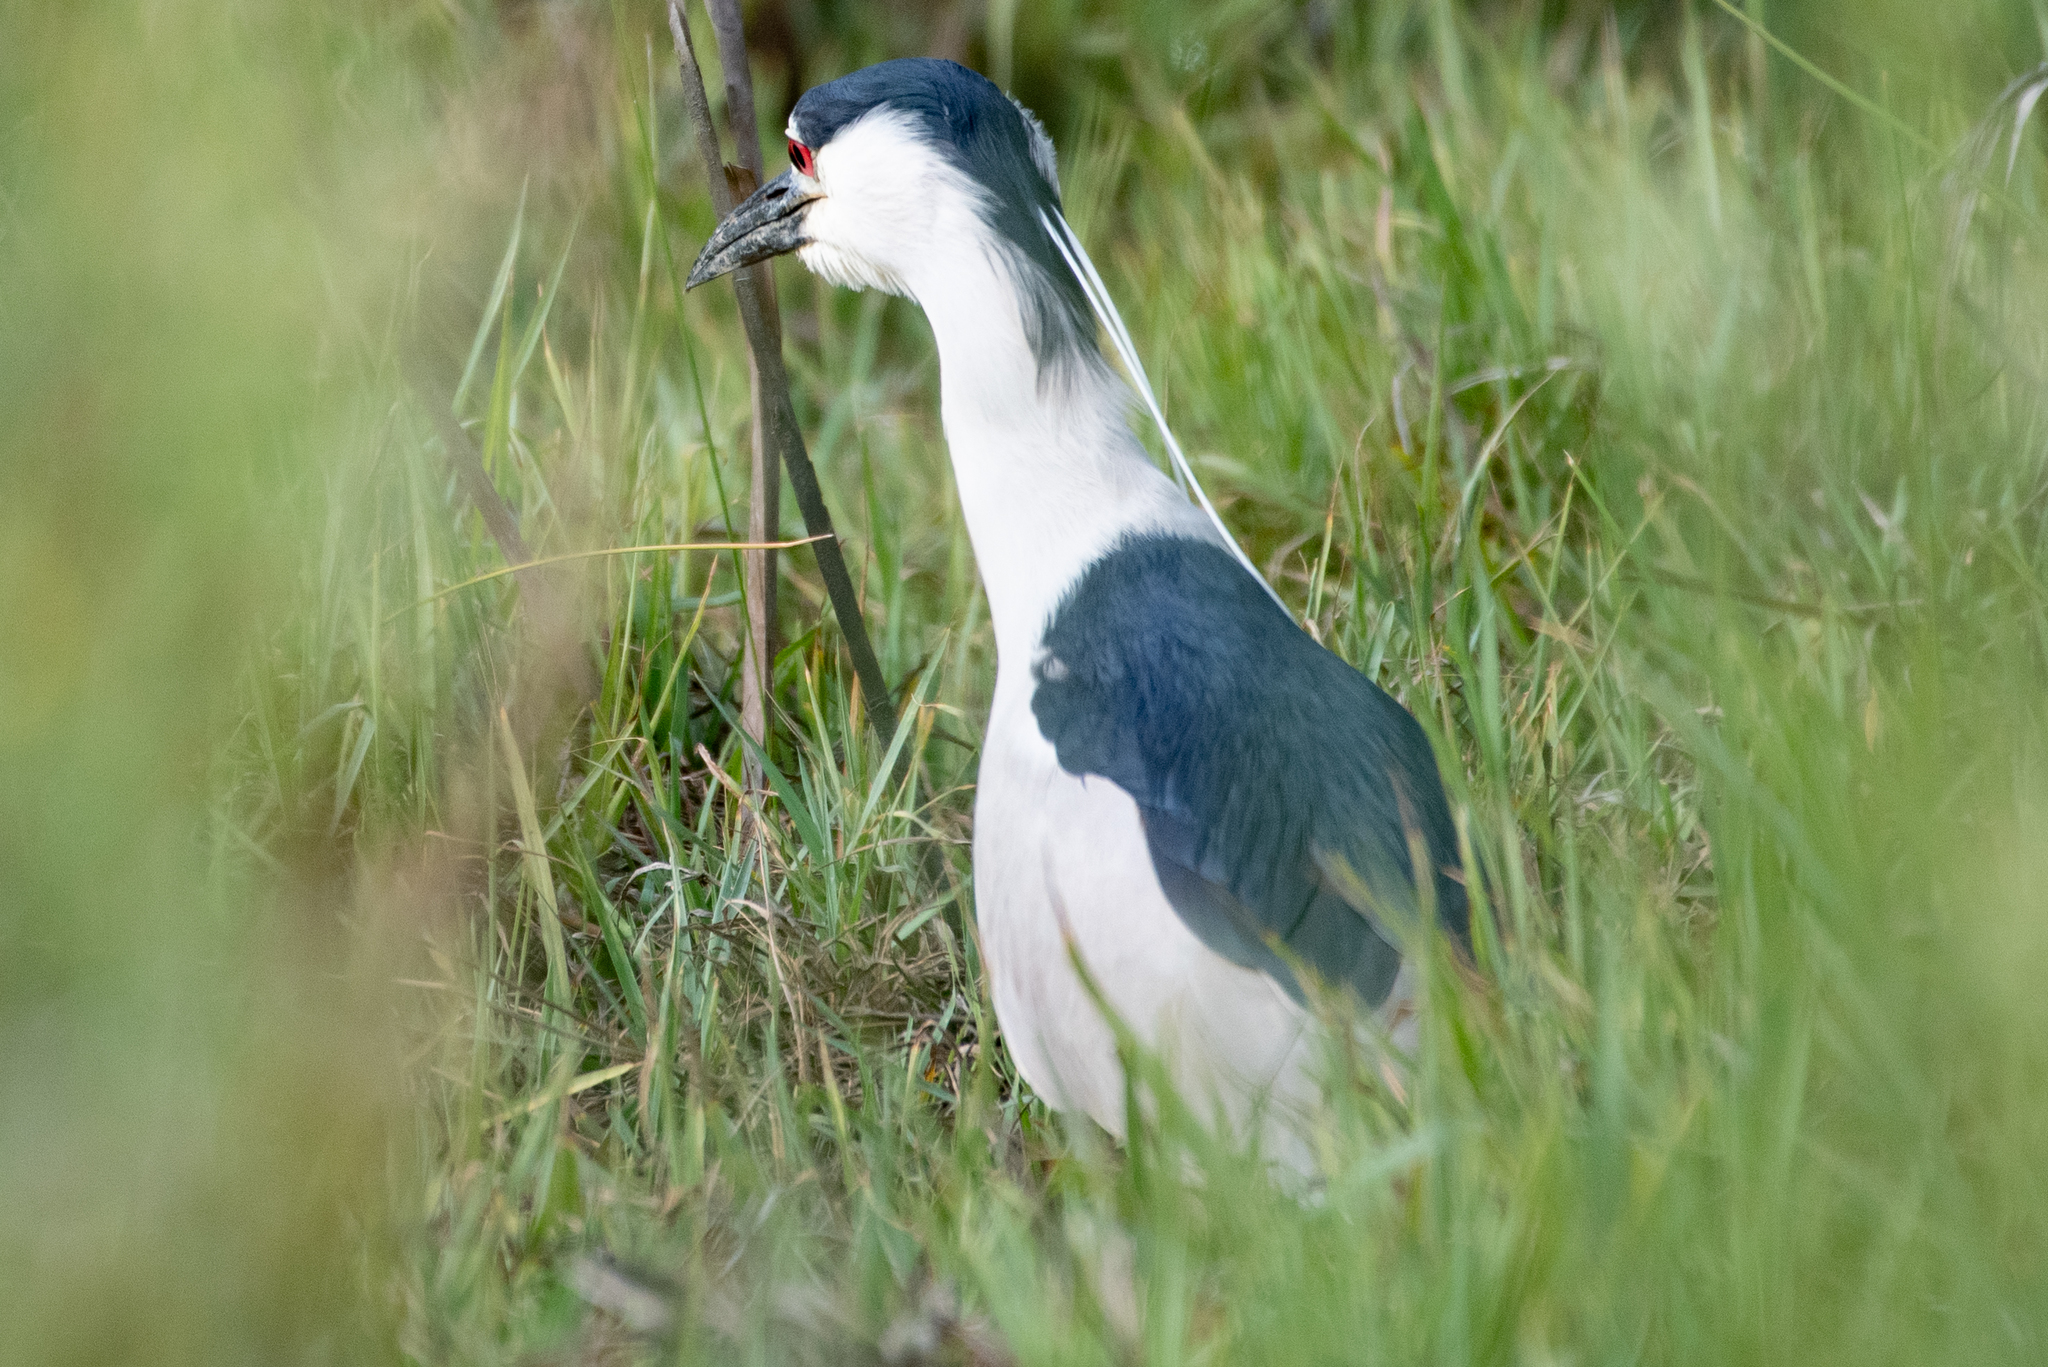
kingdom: Animalia
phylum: Chordata
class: Aves
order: Pelecaniformes
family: Ardeidae
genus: Nycticorax
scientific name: Nycticorax nycticorax
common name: Black-crowned night heron
